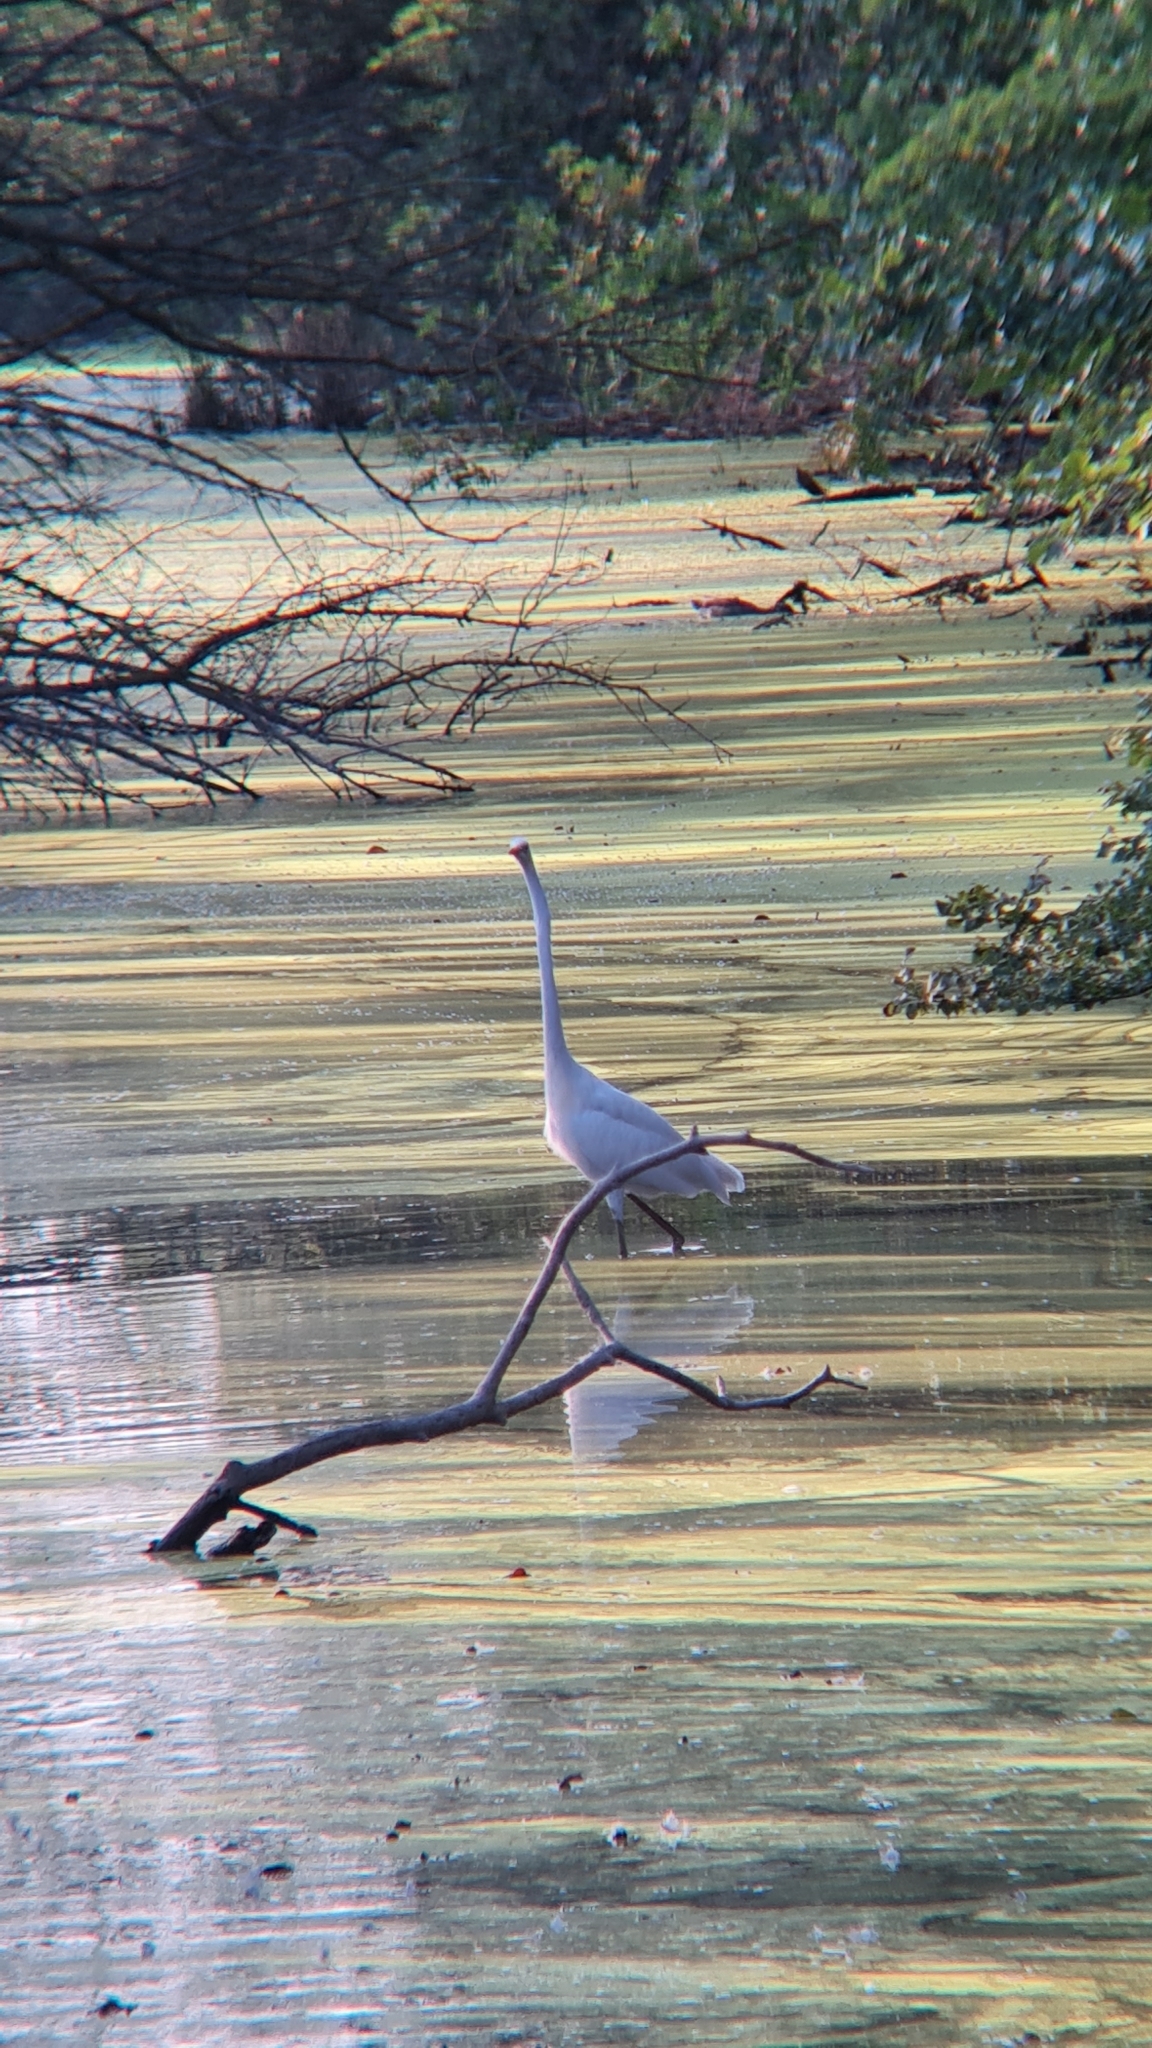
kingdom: Animalia
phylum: Chordata
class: Aves
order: Pelecaniformes
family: Ardeidae
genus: Ardea
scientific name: Ardea alba
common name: Great egret
